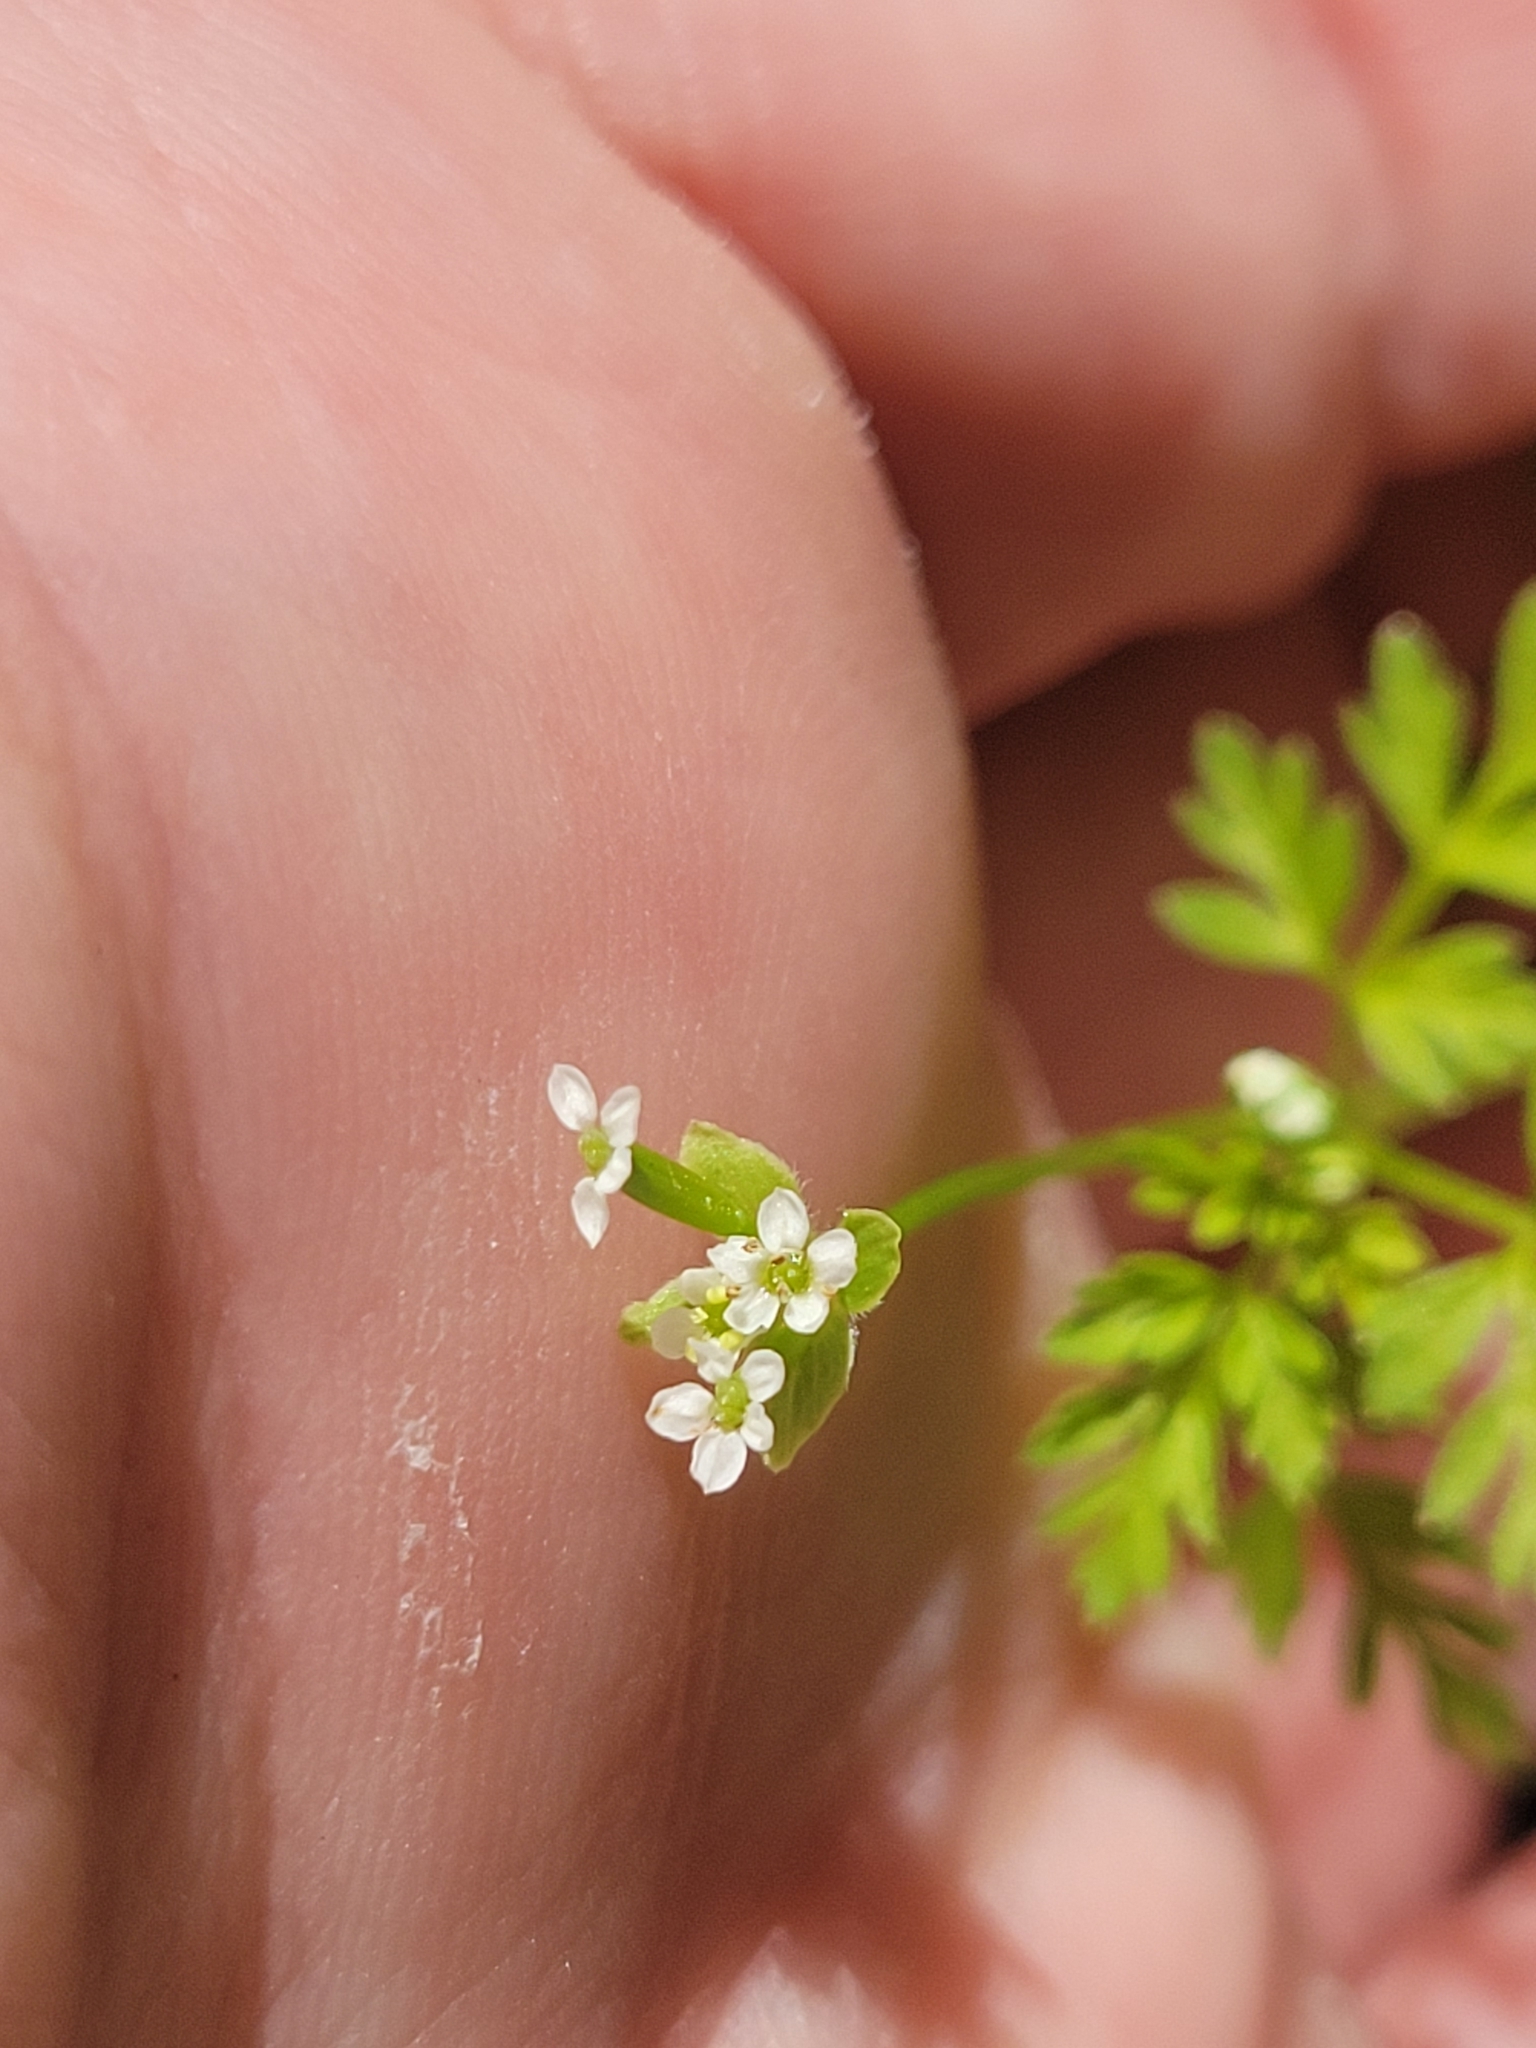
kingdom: Plantae
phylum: Tracheophyta
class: Magnoliopsida
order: Apiales
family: Apiaceae
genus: Chaerophyllum
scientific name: Chaerophyllum tainturieri
